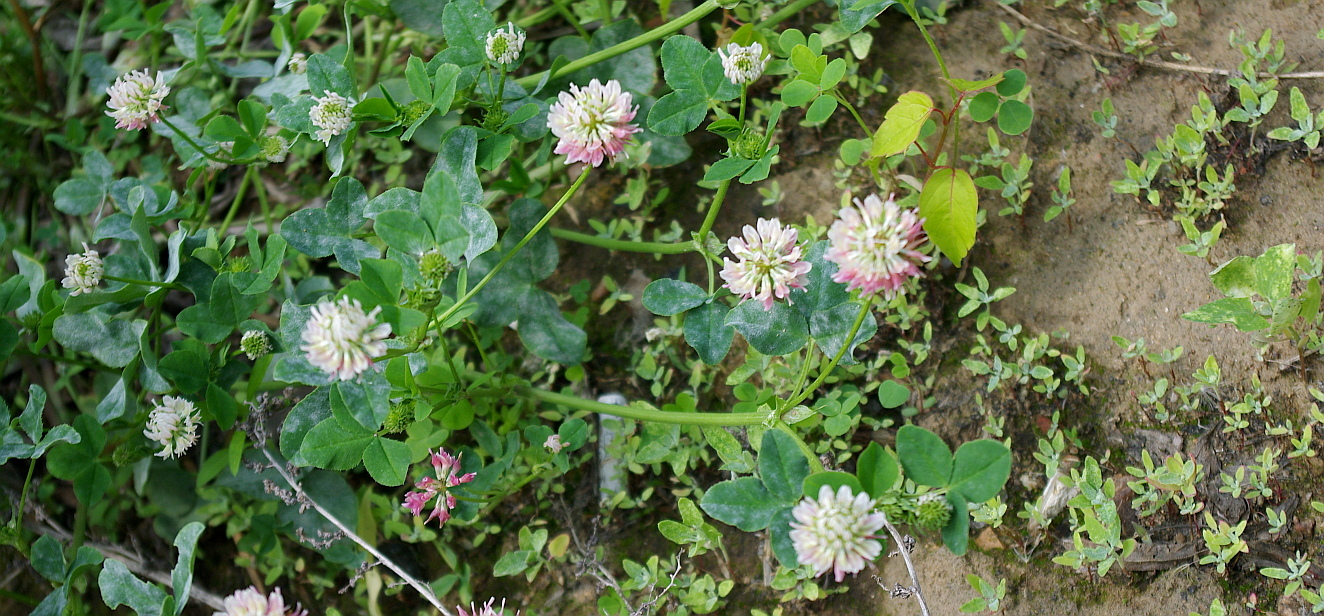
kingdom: Plantae
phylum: Tracheophyta
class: Magnoliopsida
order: Fabales
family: Fabaceae
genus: Trifolium
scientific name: Trifolium hybridum
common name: Alsike clover
